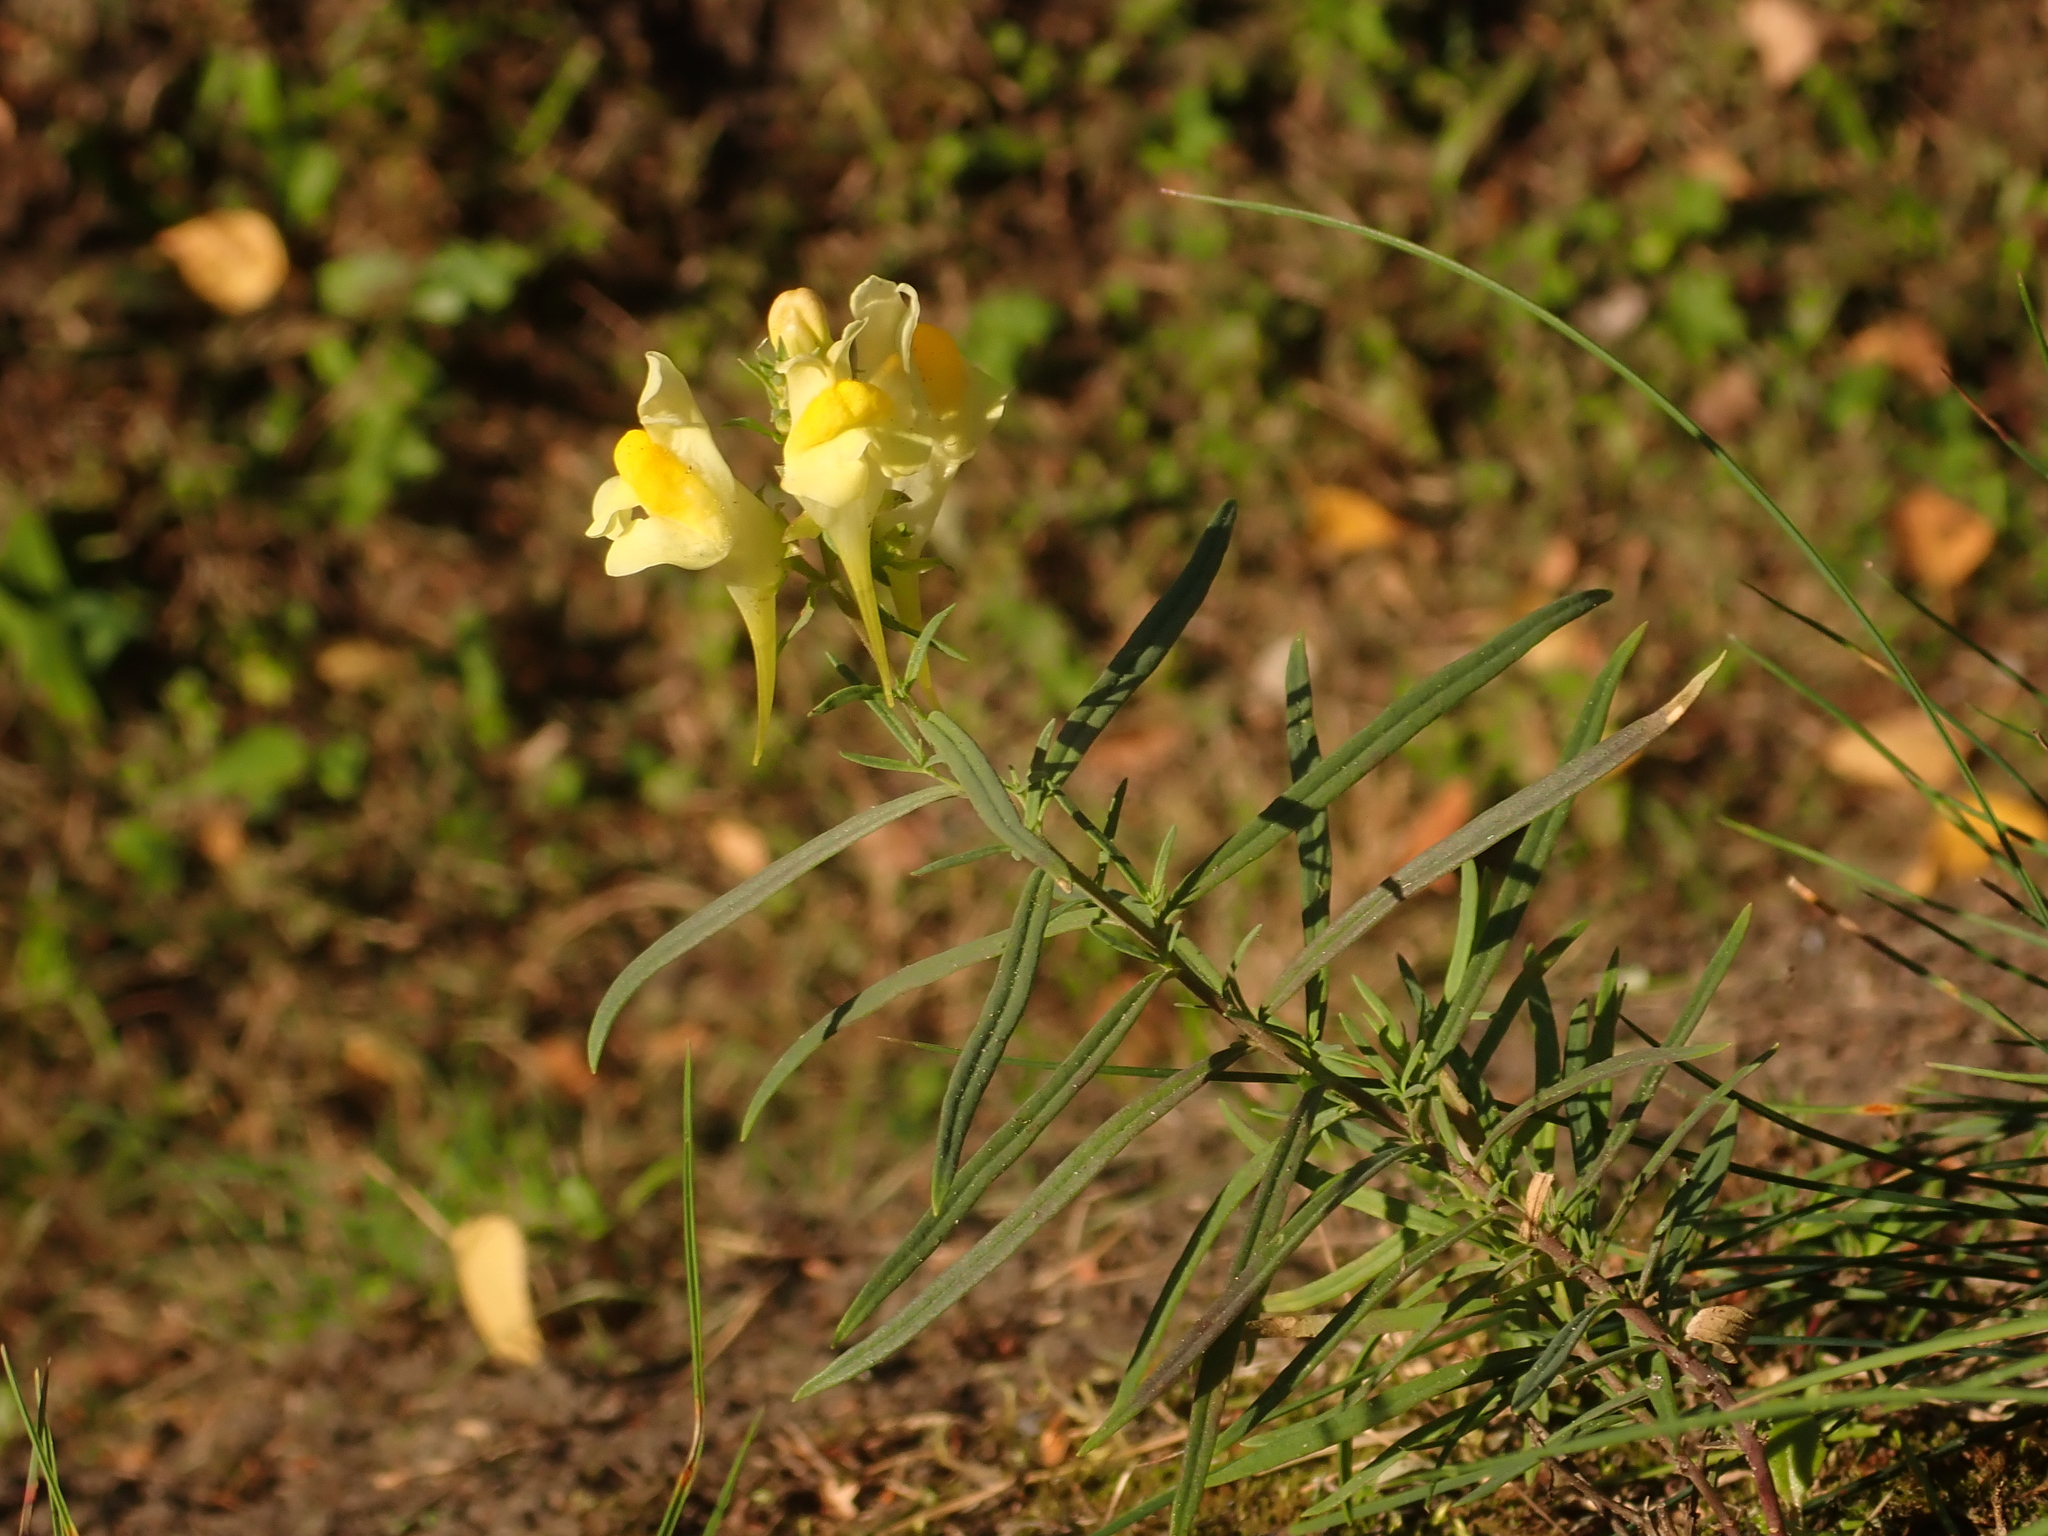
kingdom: Plantae
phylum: Tracheophyta
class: Magnoliopsida
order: Lamiales
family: Plantaginaceae
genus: Linaria
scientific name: Linaria vulgaris
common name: Butter and eggs
